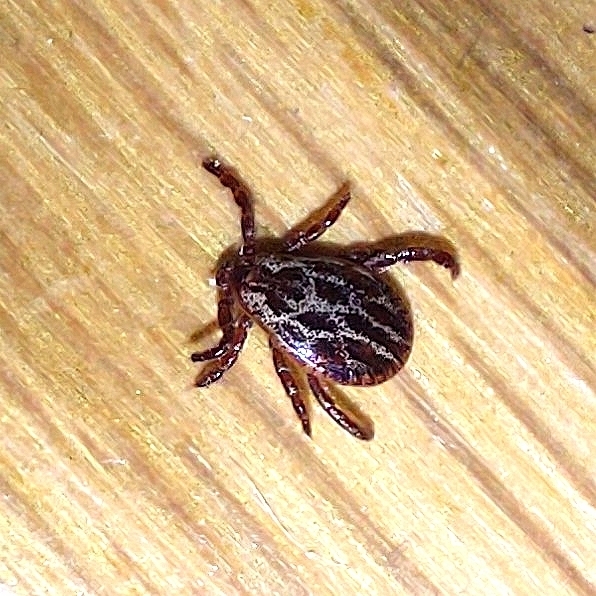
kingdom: Animalia
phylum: Arthropoda
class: Arachnida
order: Ixodida
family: Ixodidae
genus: Dermacentor
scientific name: Dermacentor reticulatus
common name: Ornate cow tick
